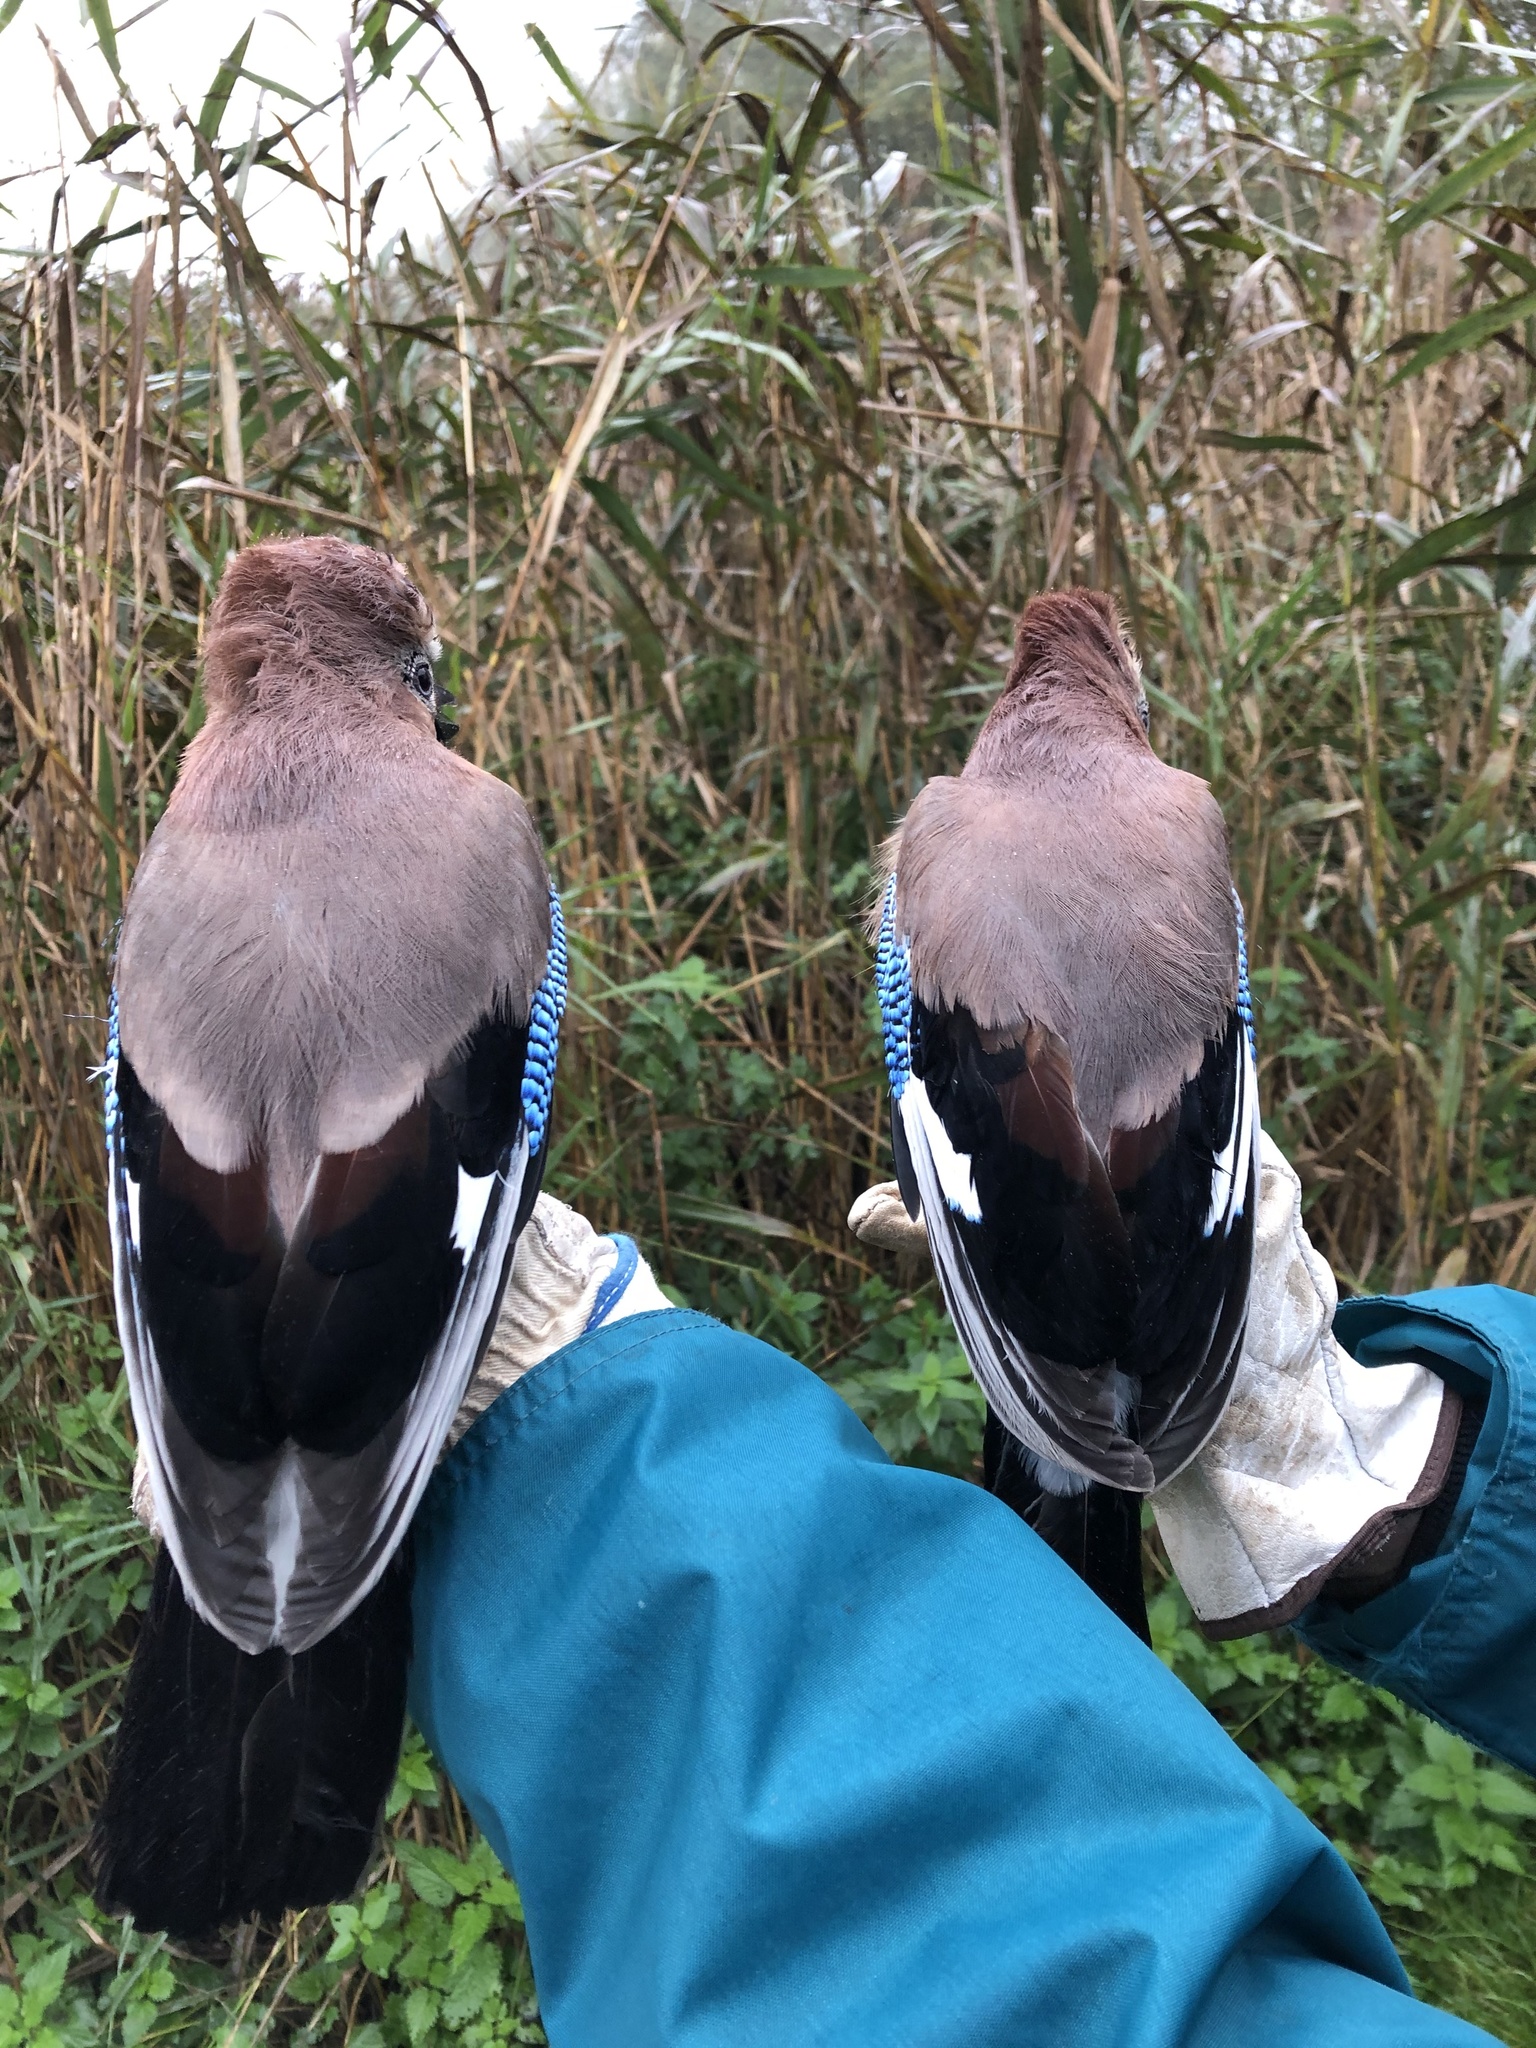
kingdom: Animalia
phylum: Chordata
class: Aves
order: Passeriformes
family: Corvidae
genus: Garrulus
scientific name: Garrulus glandarius
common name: Eurasian jay
